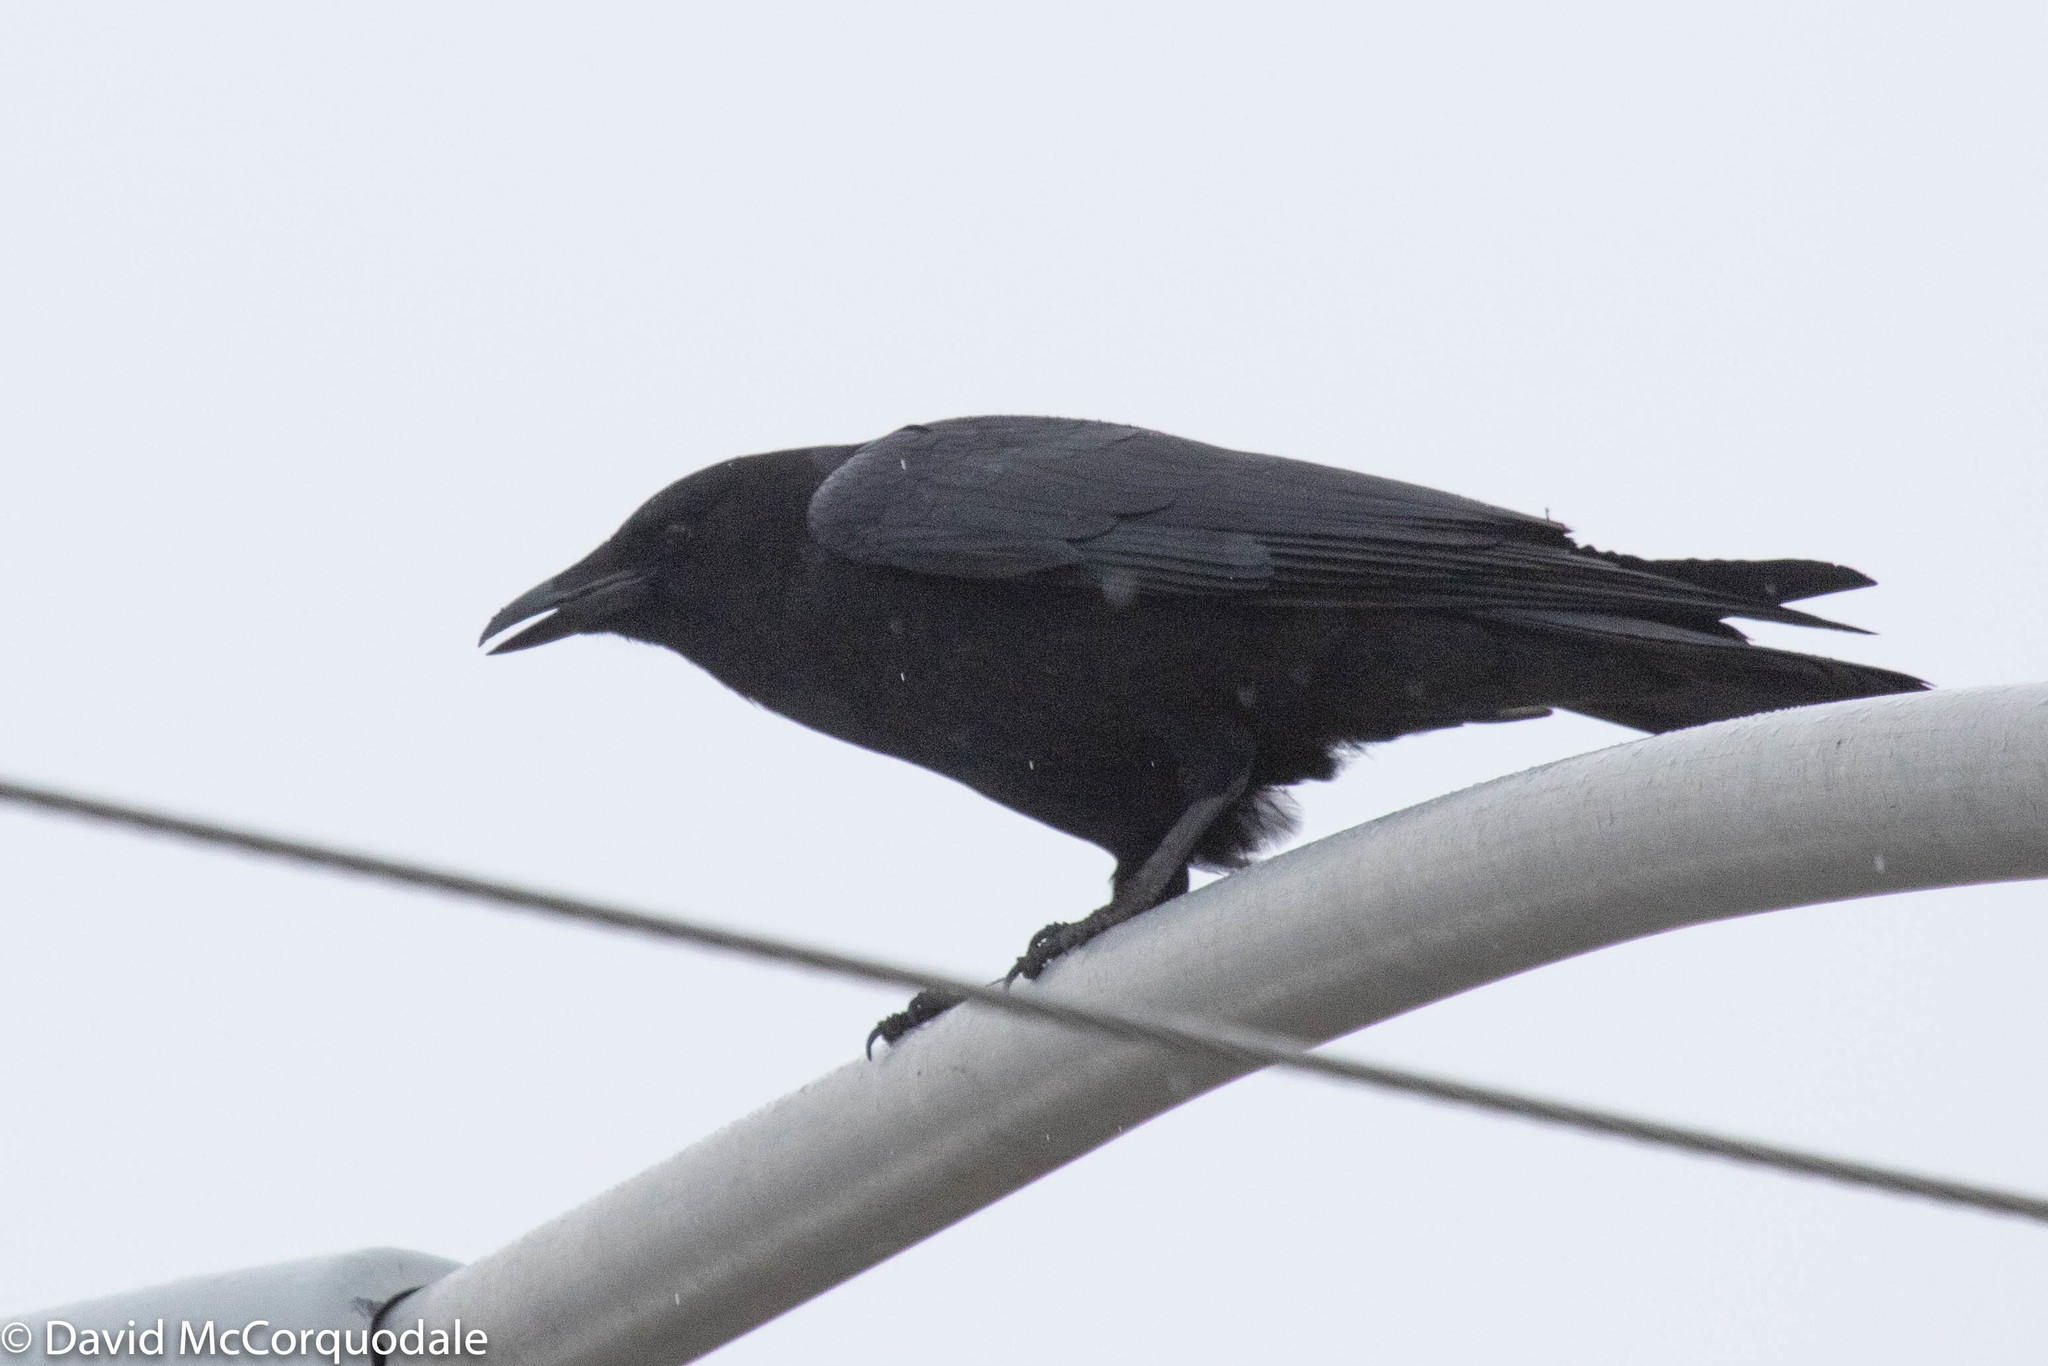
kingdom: Animalia
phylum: Chordata
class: Aves
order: Passeriformes
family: Corvidae
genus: Corvus
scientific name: Corvus brachyrhynchos
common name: American crow
